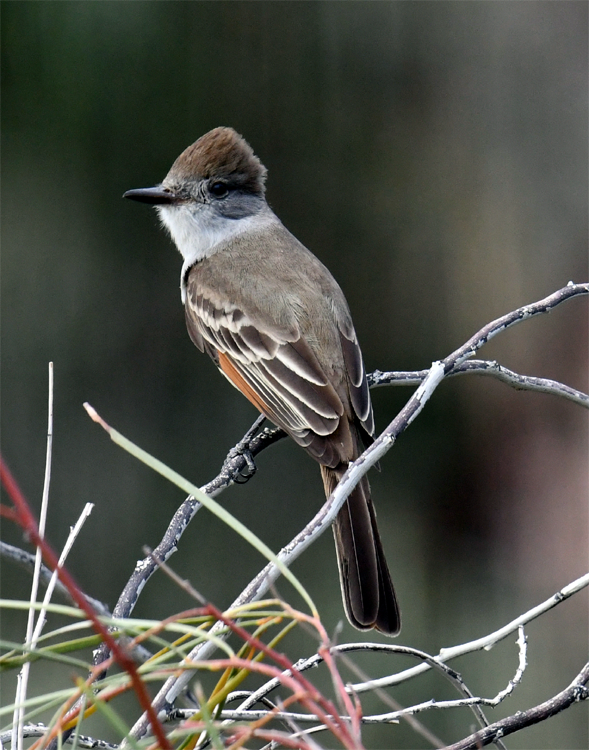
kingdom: Animalia
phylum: Chordata
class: Aves
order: Passeriformes
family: Tyrannidae
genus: Myiarchus
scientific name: Myiarchus cinerascens
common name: Ash-throated flycatcher
